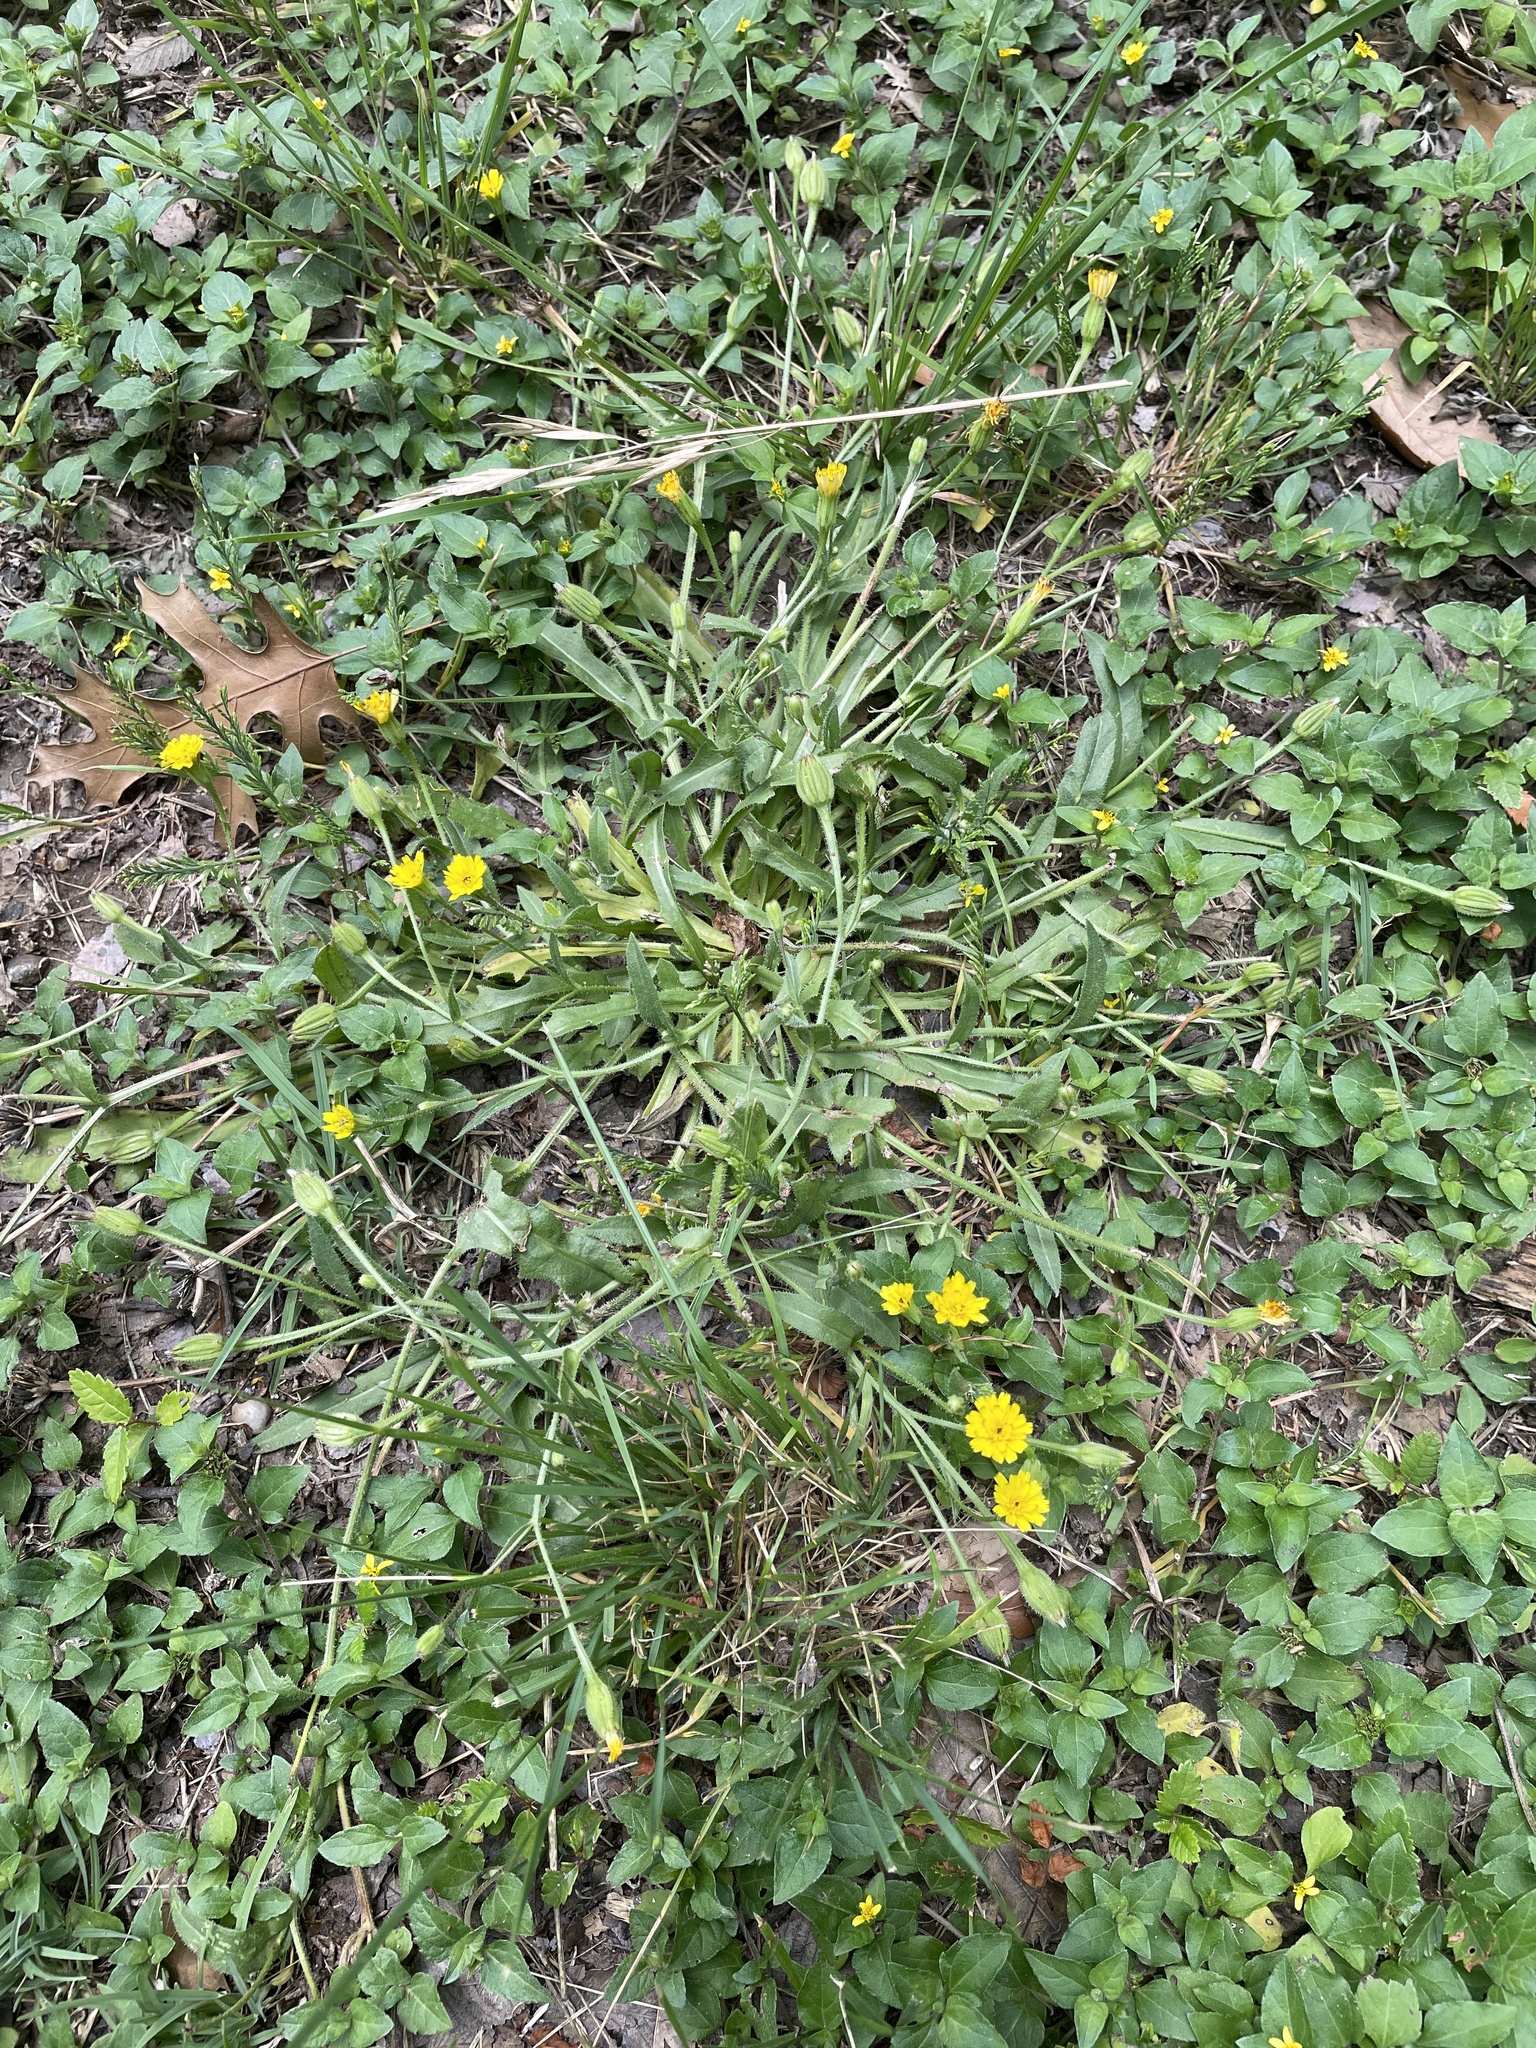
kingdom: Plantae
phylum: Tracheophyta
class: Magnoliopsida
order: Asterales
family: Asteraceae
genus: Hedypnois
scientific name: Hedypnois rhagadioloides
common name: Cretan weed
